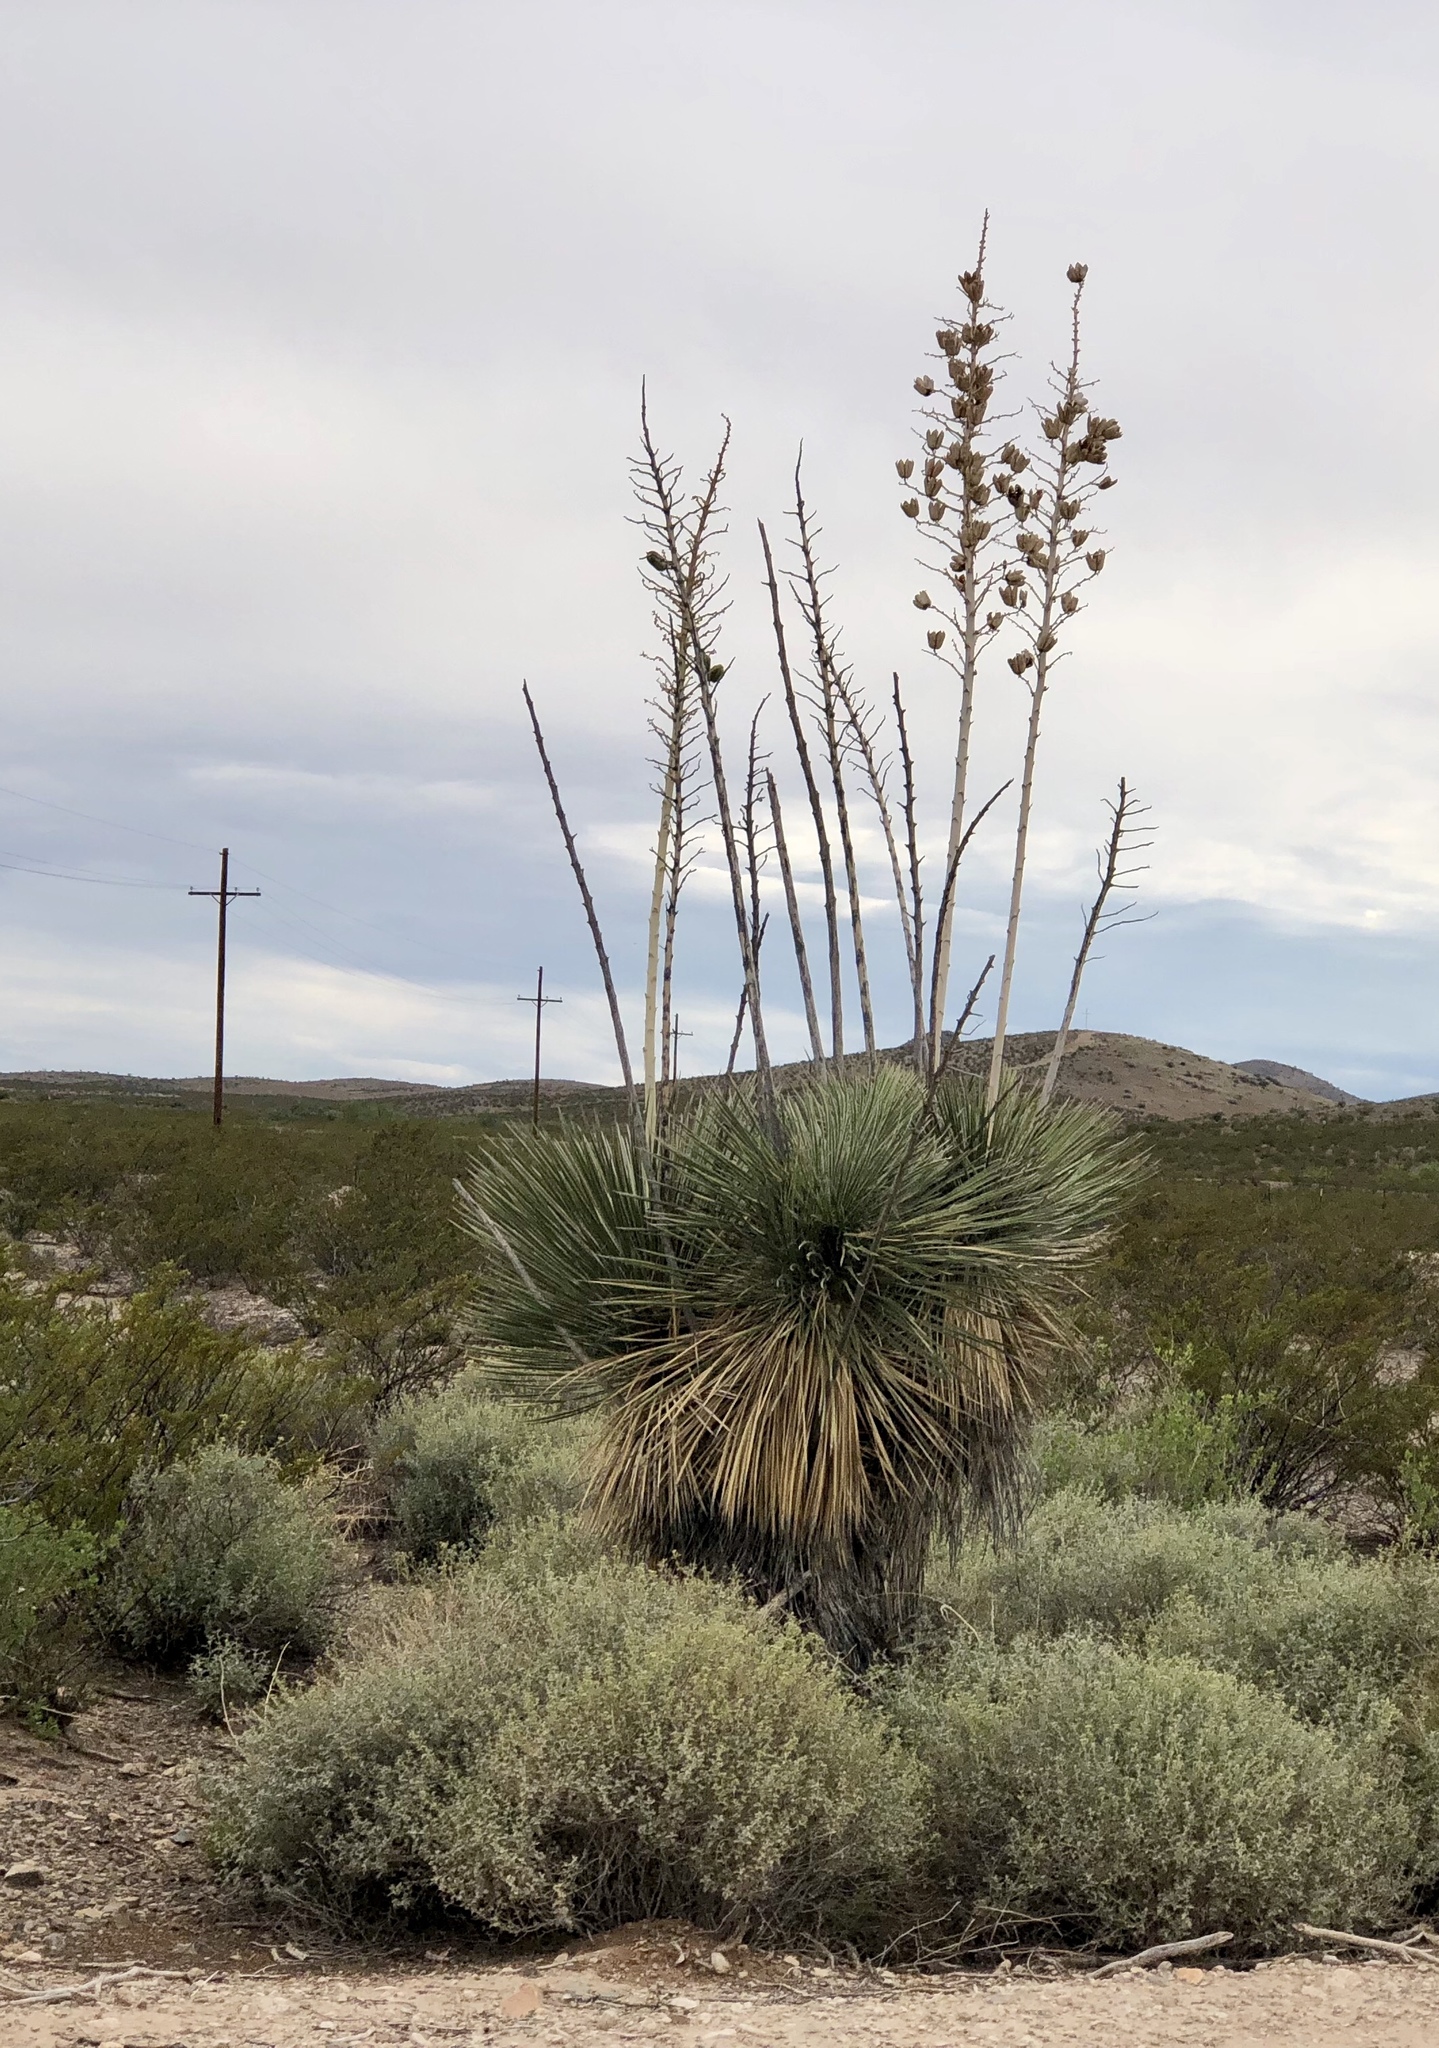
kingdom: Plantae
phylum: Tracheophyta
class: Liliopsida
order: Asparagales
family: Asparagaceae
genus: Yucca
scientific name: Yucca elata
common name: Palmella
